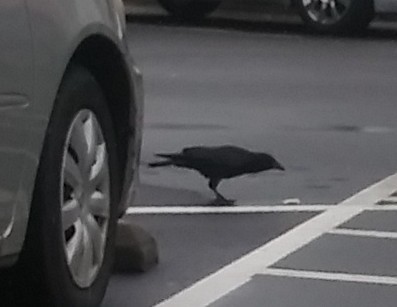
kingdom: Animalia
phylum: Chordata
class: Aves
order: Passeriformes
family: Corvidae
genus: Corvus
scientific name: Corvus
